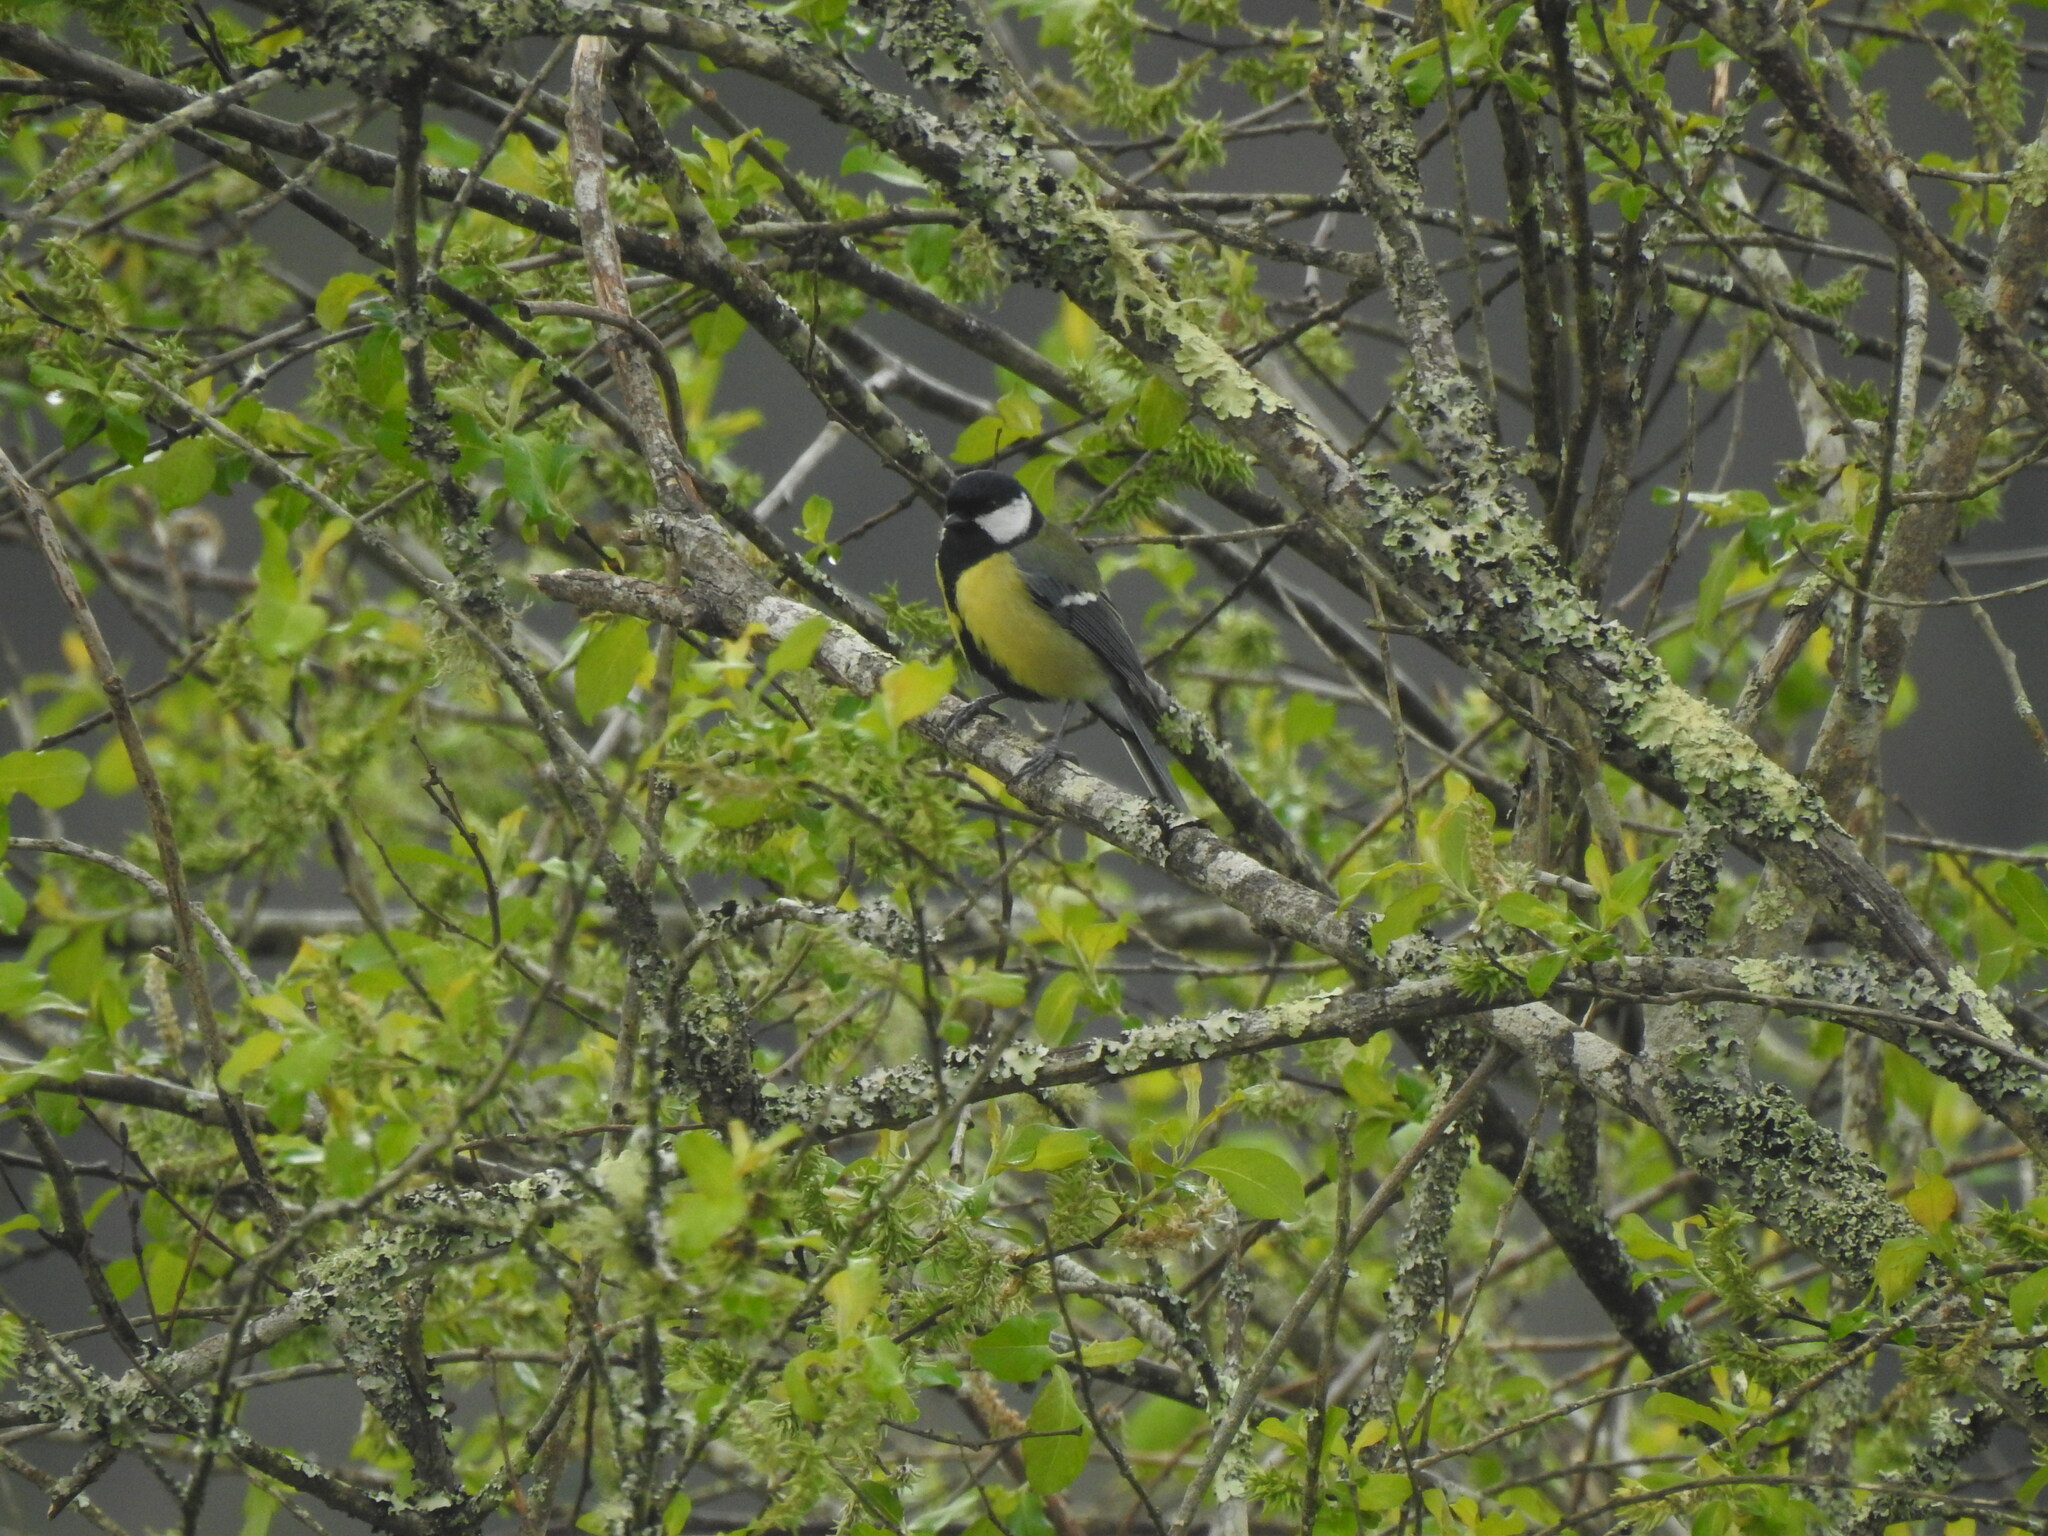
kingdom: Animalia
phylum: Chordata
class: Aves
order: Passeriformes
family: Paridae
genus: Parus
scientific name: Parus major
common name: Great tit
